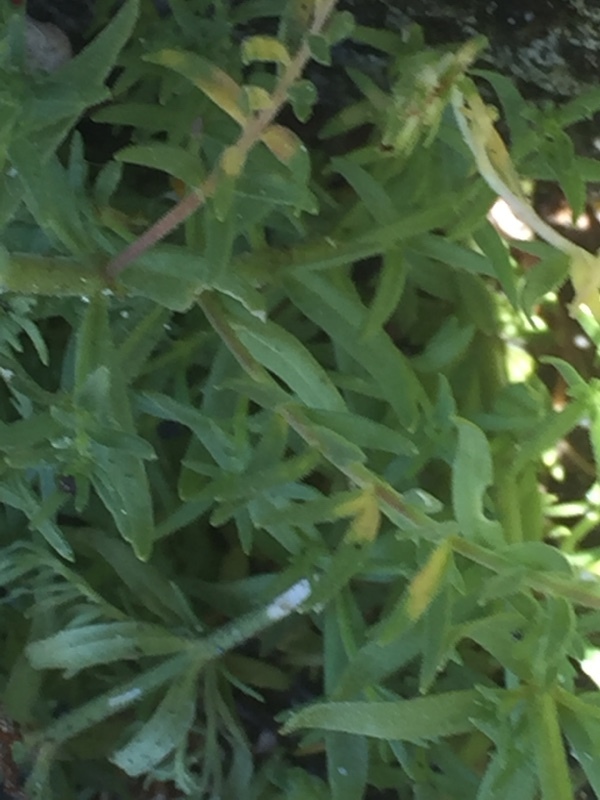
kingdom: Plantae
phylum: Tracheophyta
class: Magnoliopsida
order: Lamiales
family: Plantaginaceae
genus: Linaria
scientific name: Linaria saxatilis
